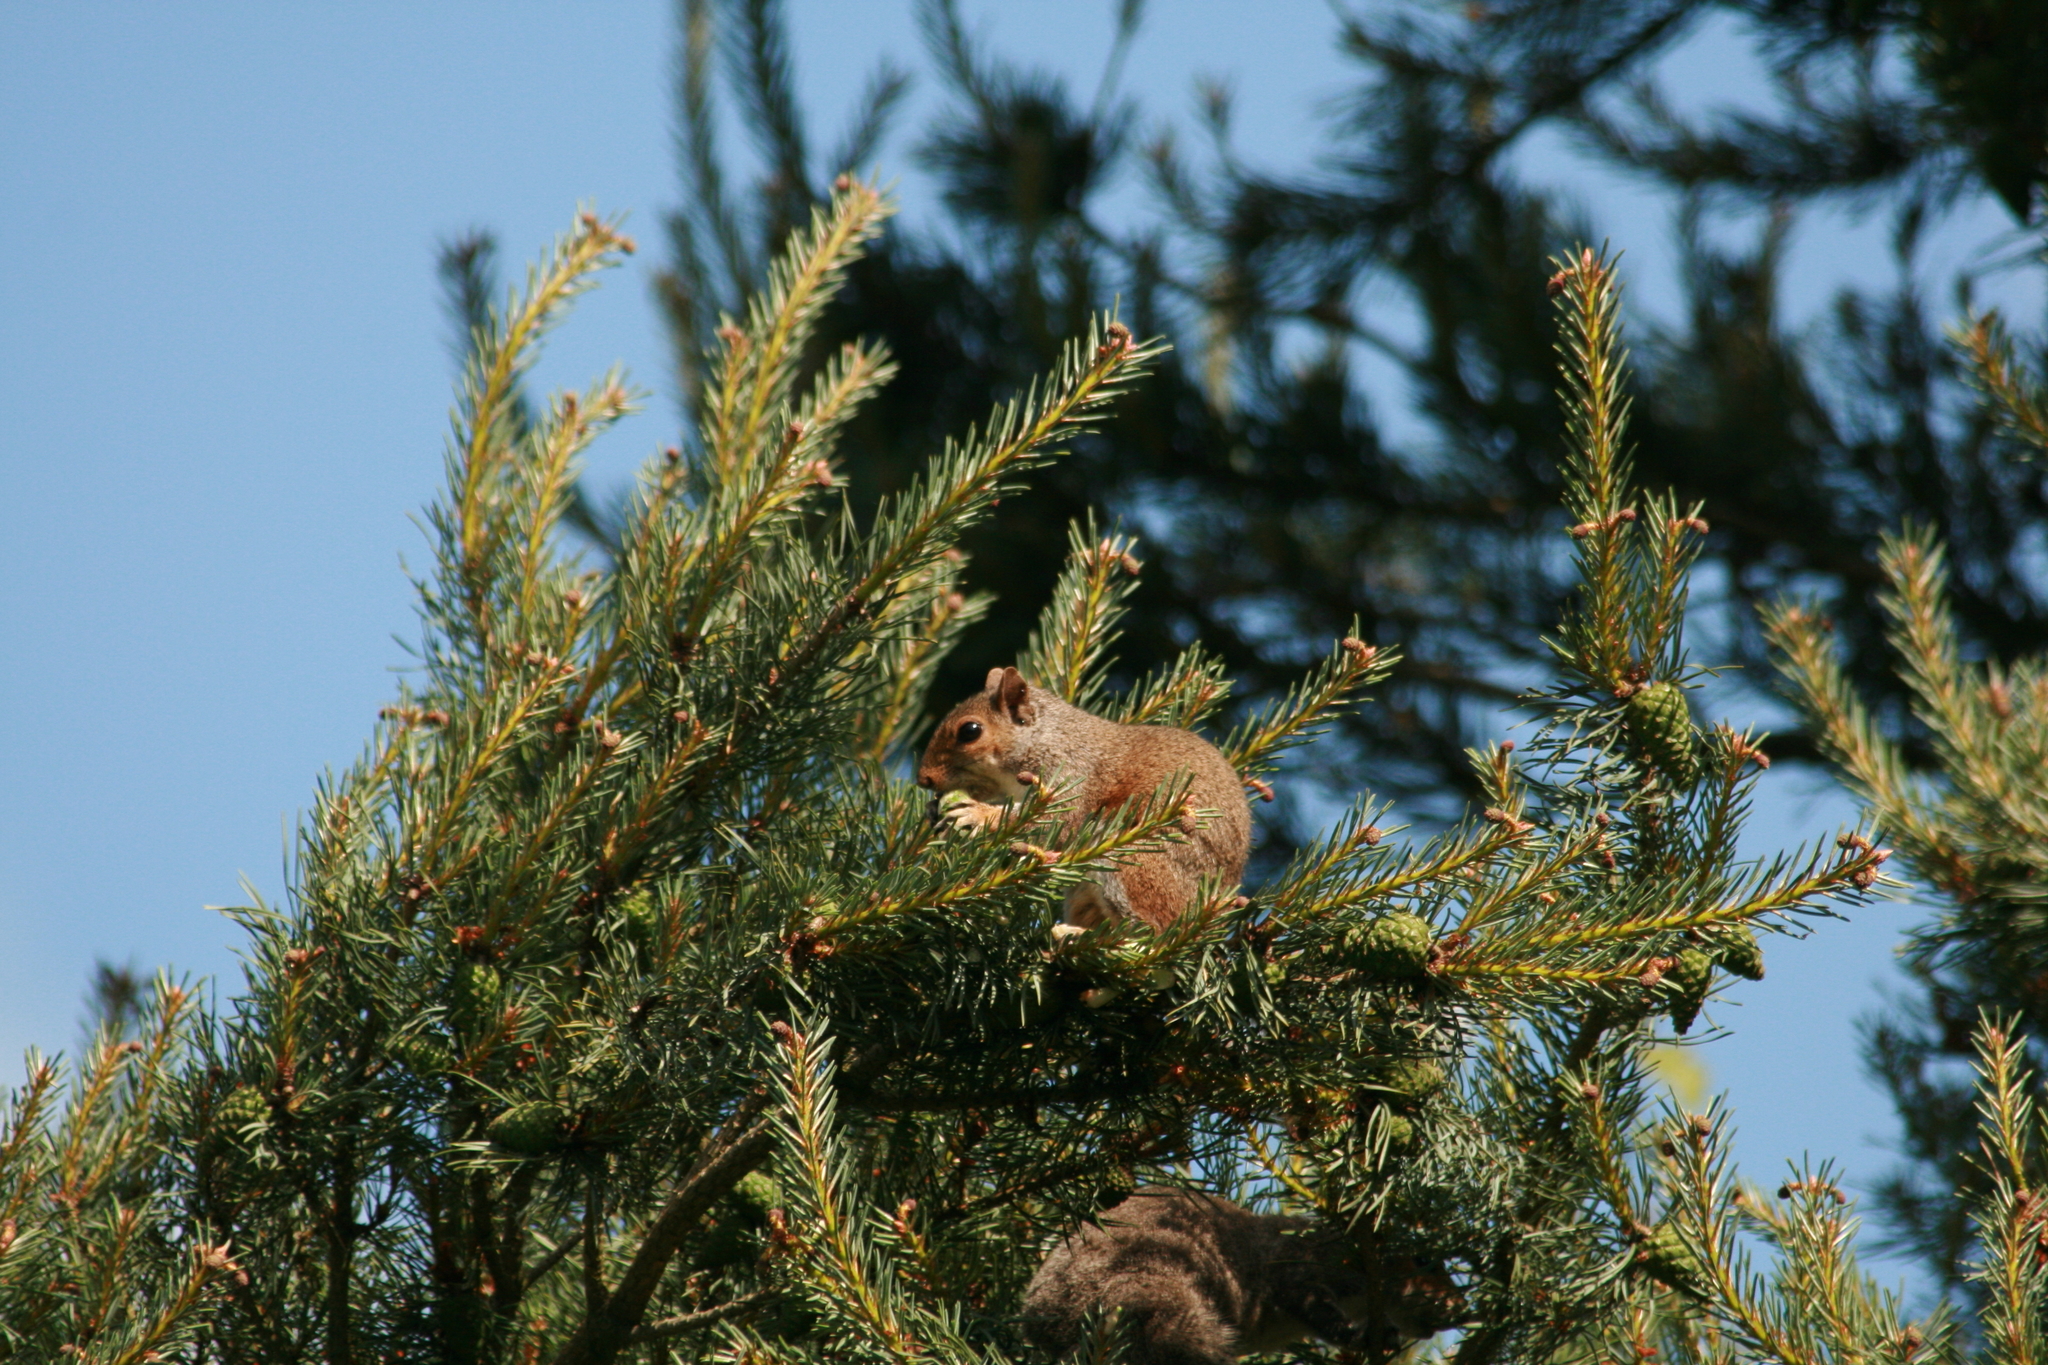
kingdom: Animalia
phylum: Chordata
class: Mammalia
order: Rodentia
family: Sciuridae
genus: Sciurus
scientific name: Sciurus carolinensis
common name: Eastern gray squirrel
